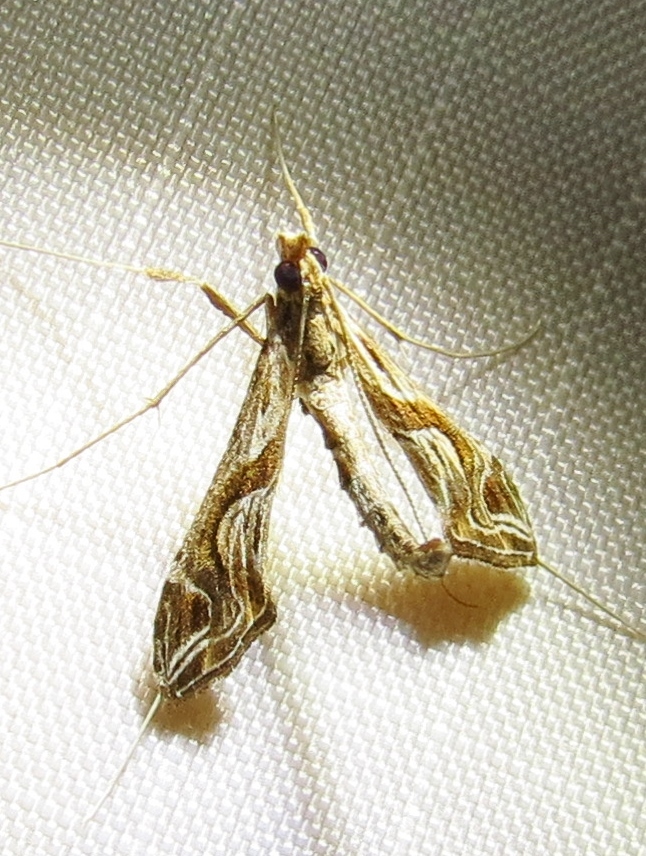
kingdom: Animalia
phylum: Arthropoda
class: Insecta
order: Lepidoptera
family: Crambidae
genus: Lineodes
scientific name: Lineodes integra
